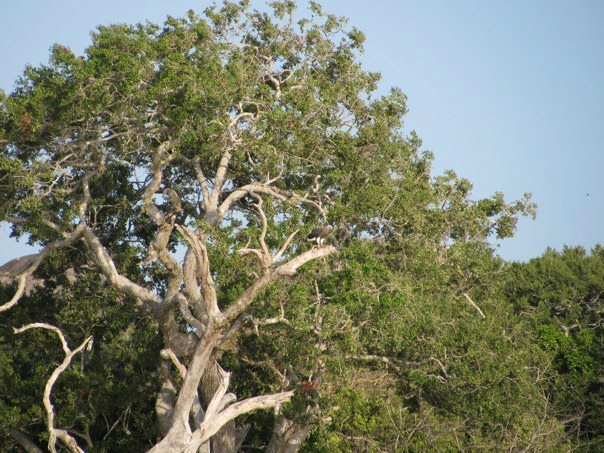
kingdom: Animalia
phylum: Chordata
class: Aves
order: Accipitriformes
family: Accipitridae
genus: Icthyophaga
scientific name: Icthyophaga ichthyaetus
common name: Grey-headed fish eagle
